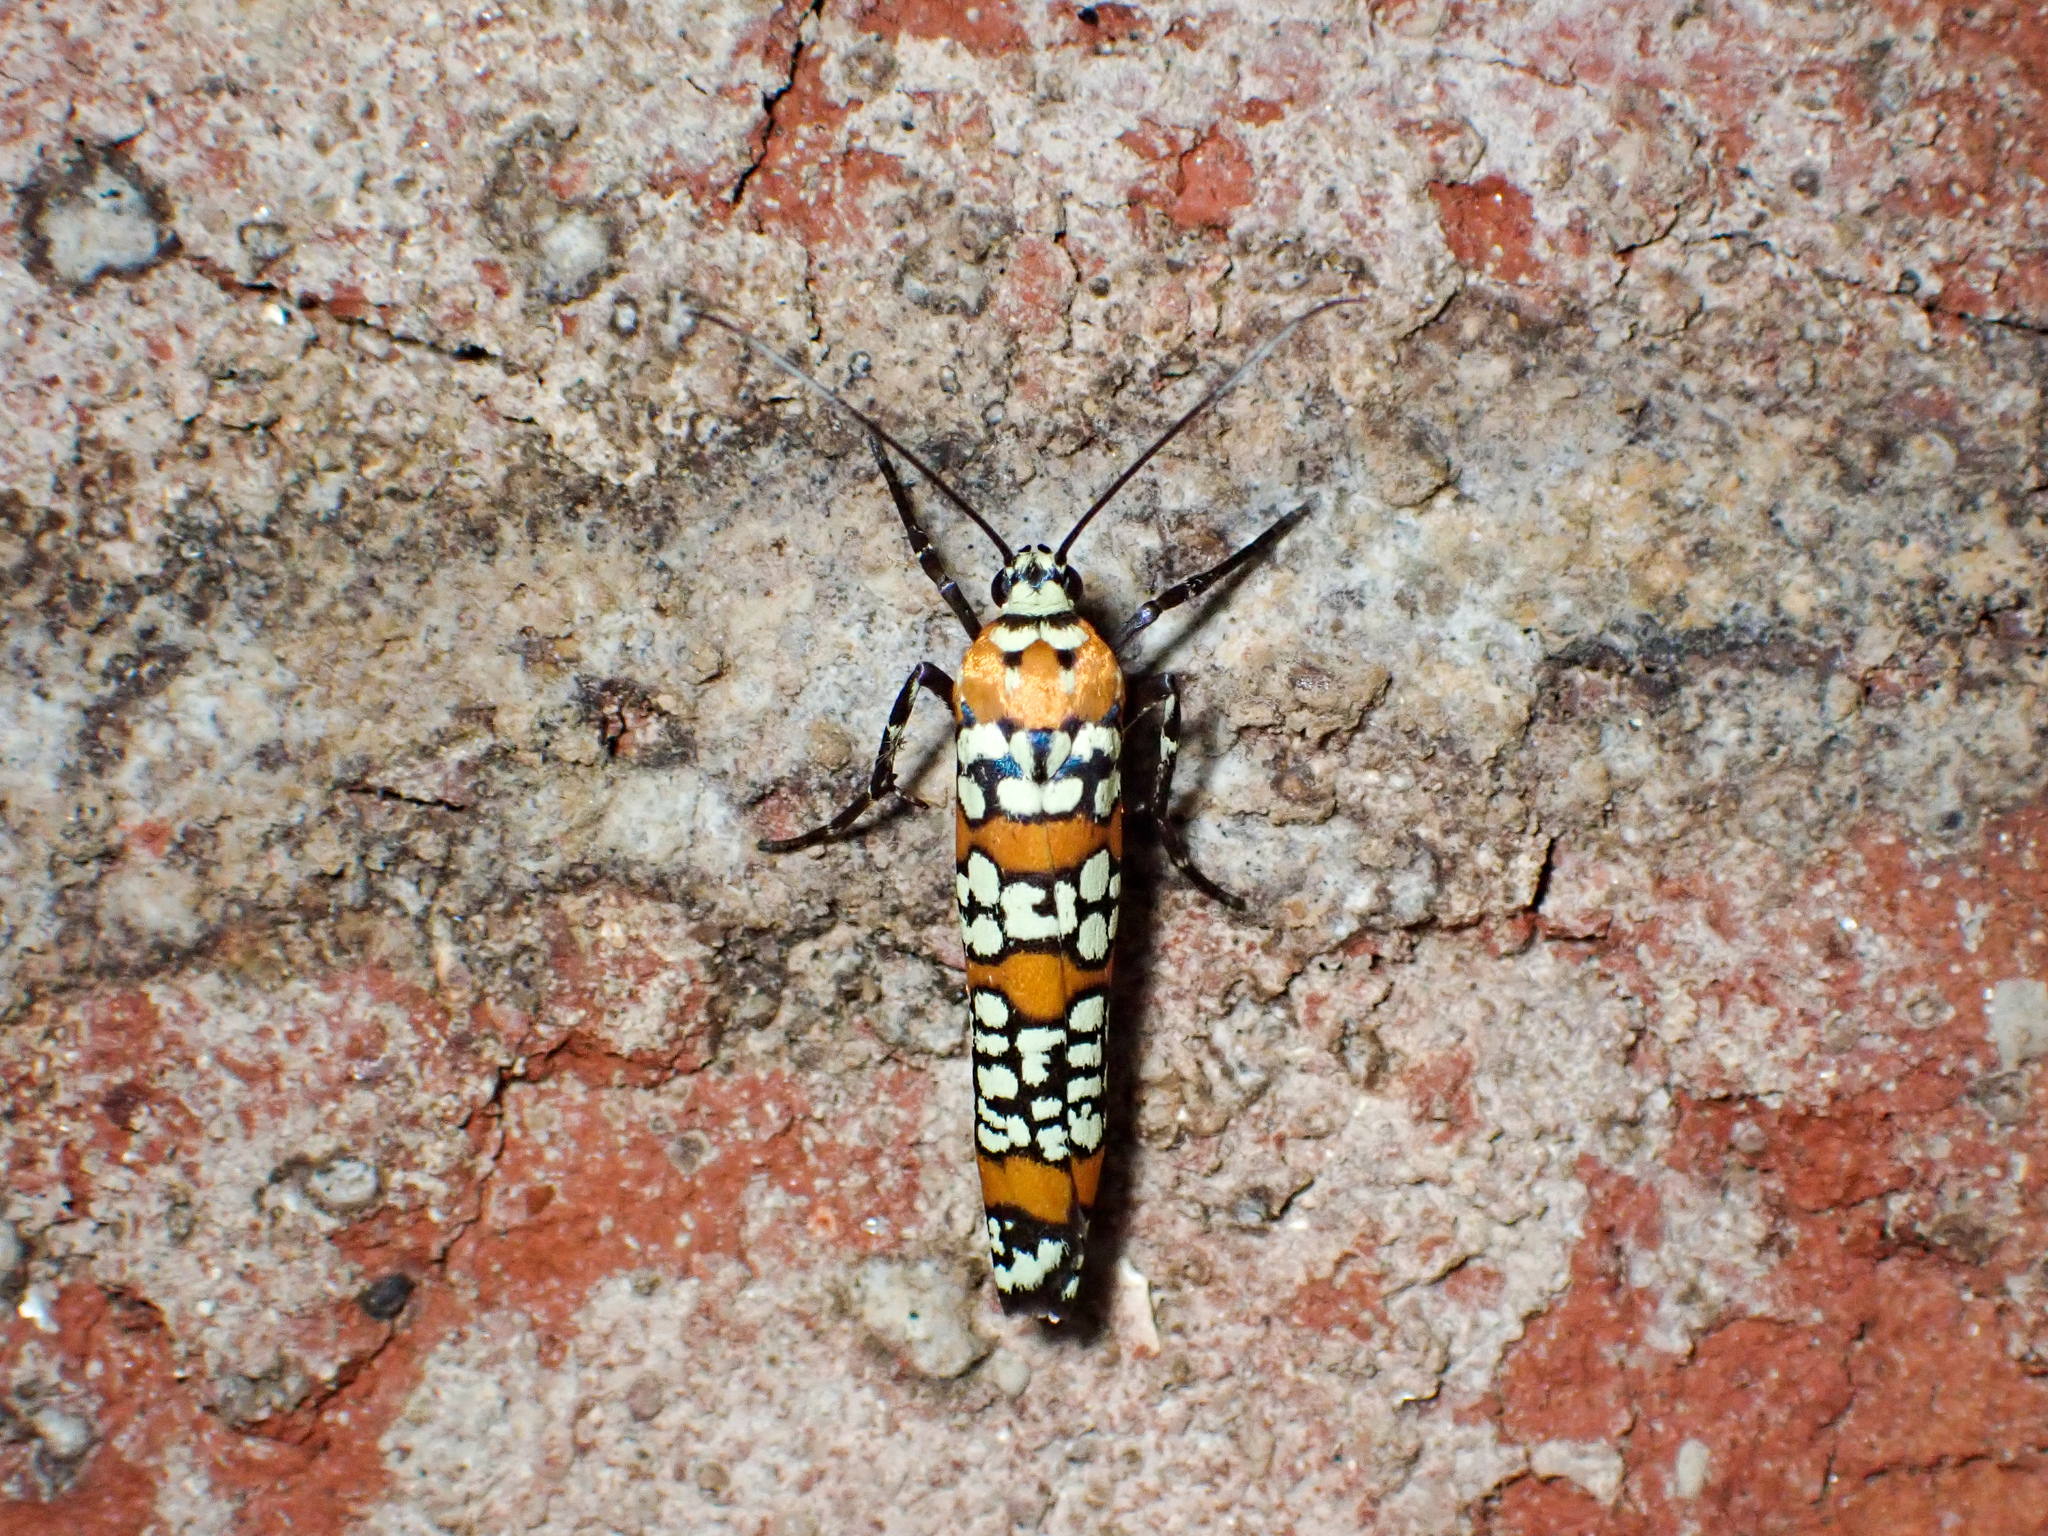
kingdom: Animalia
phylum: Arthropoda
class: Insecta
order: Lepidoptera
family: Attevidae
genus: Atteva
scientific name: Atteva punctella
